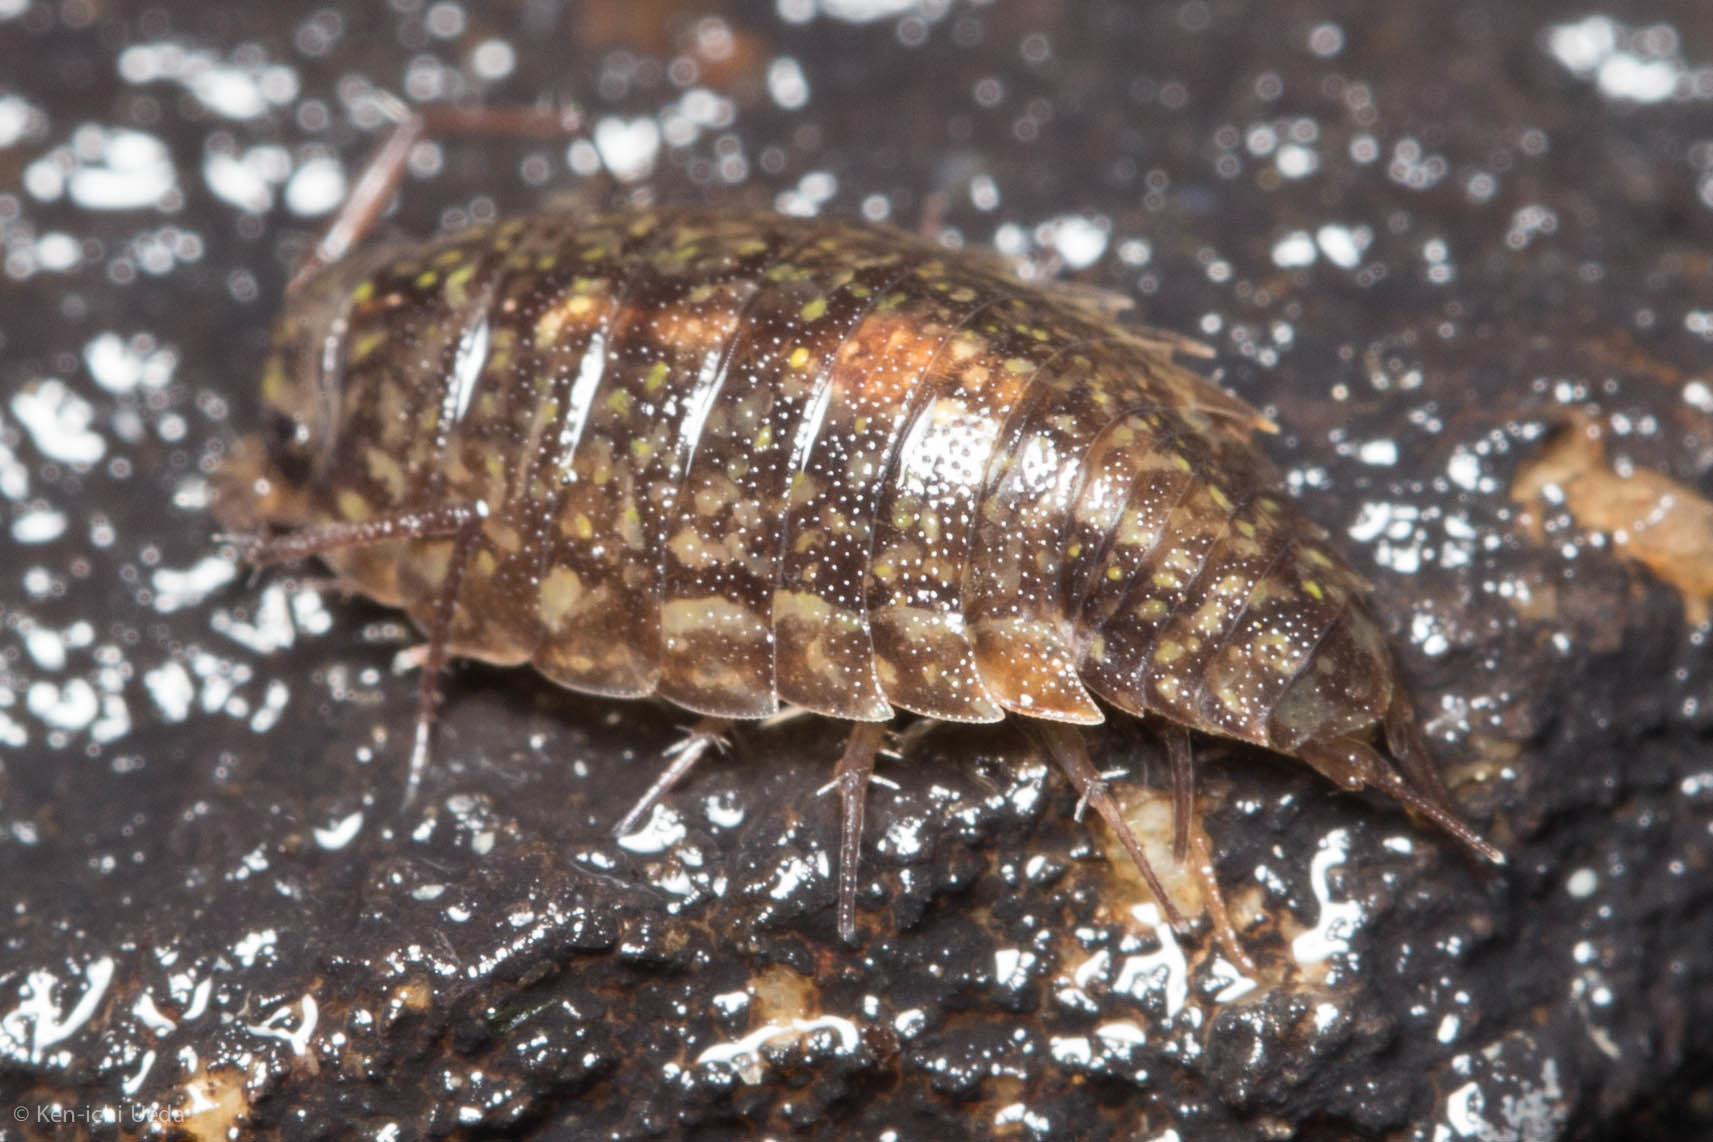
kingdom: Animalia
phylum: Arthropoda
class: Malacostraca
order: Isopoda
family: Ligiidae
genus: Ligidium
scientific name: Ligidium latum
